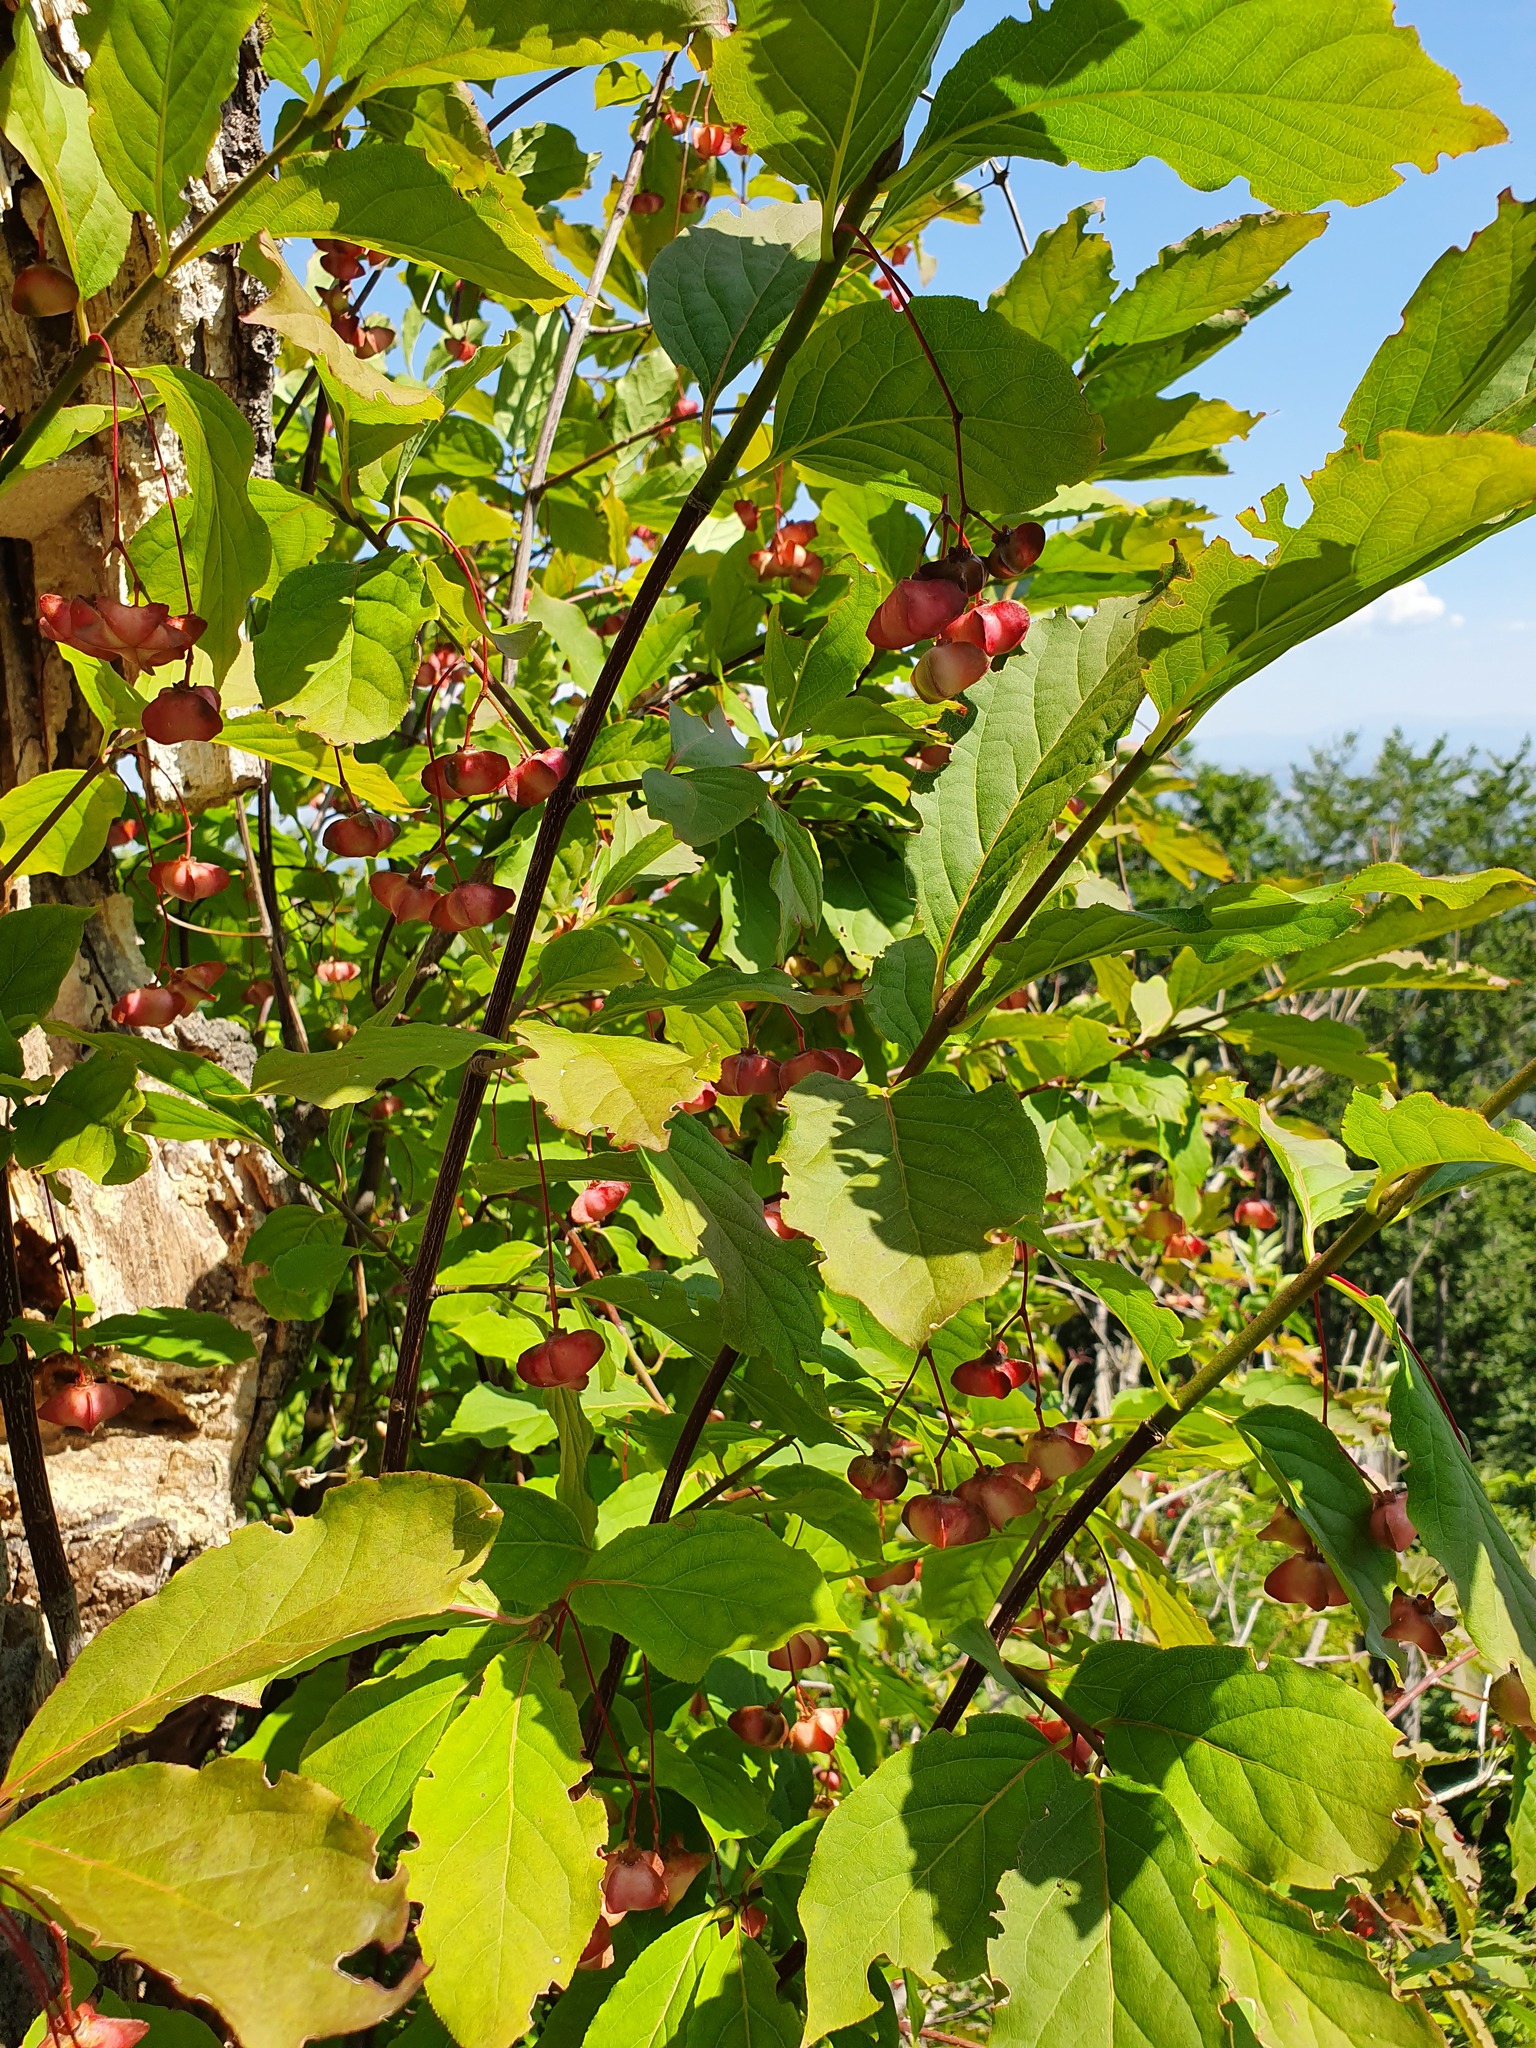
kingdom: Plantae
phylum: Tracheophyta
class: Magnoliopsida
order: Celastrales
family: Celastraceae
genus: Euonymus
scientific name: Euonymus latifolius
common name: Large-leaved spindle
